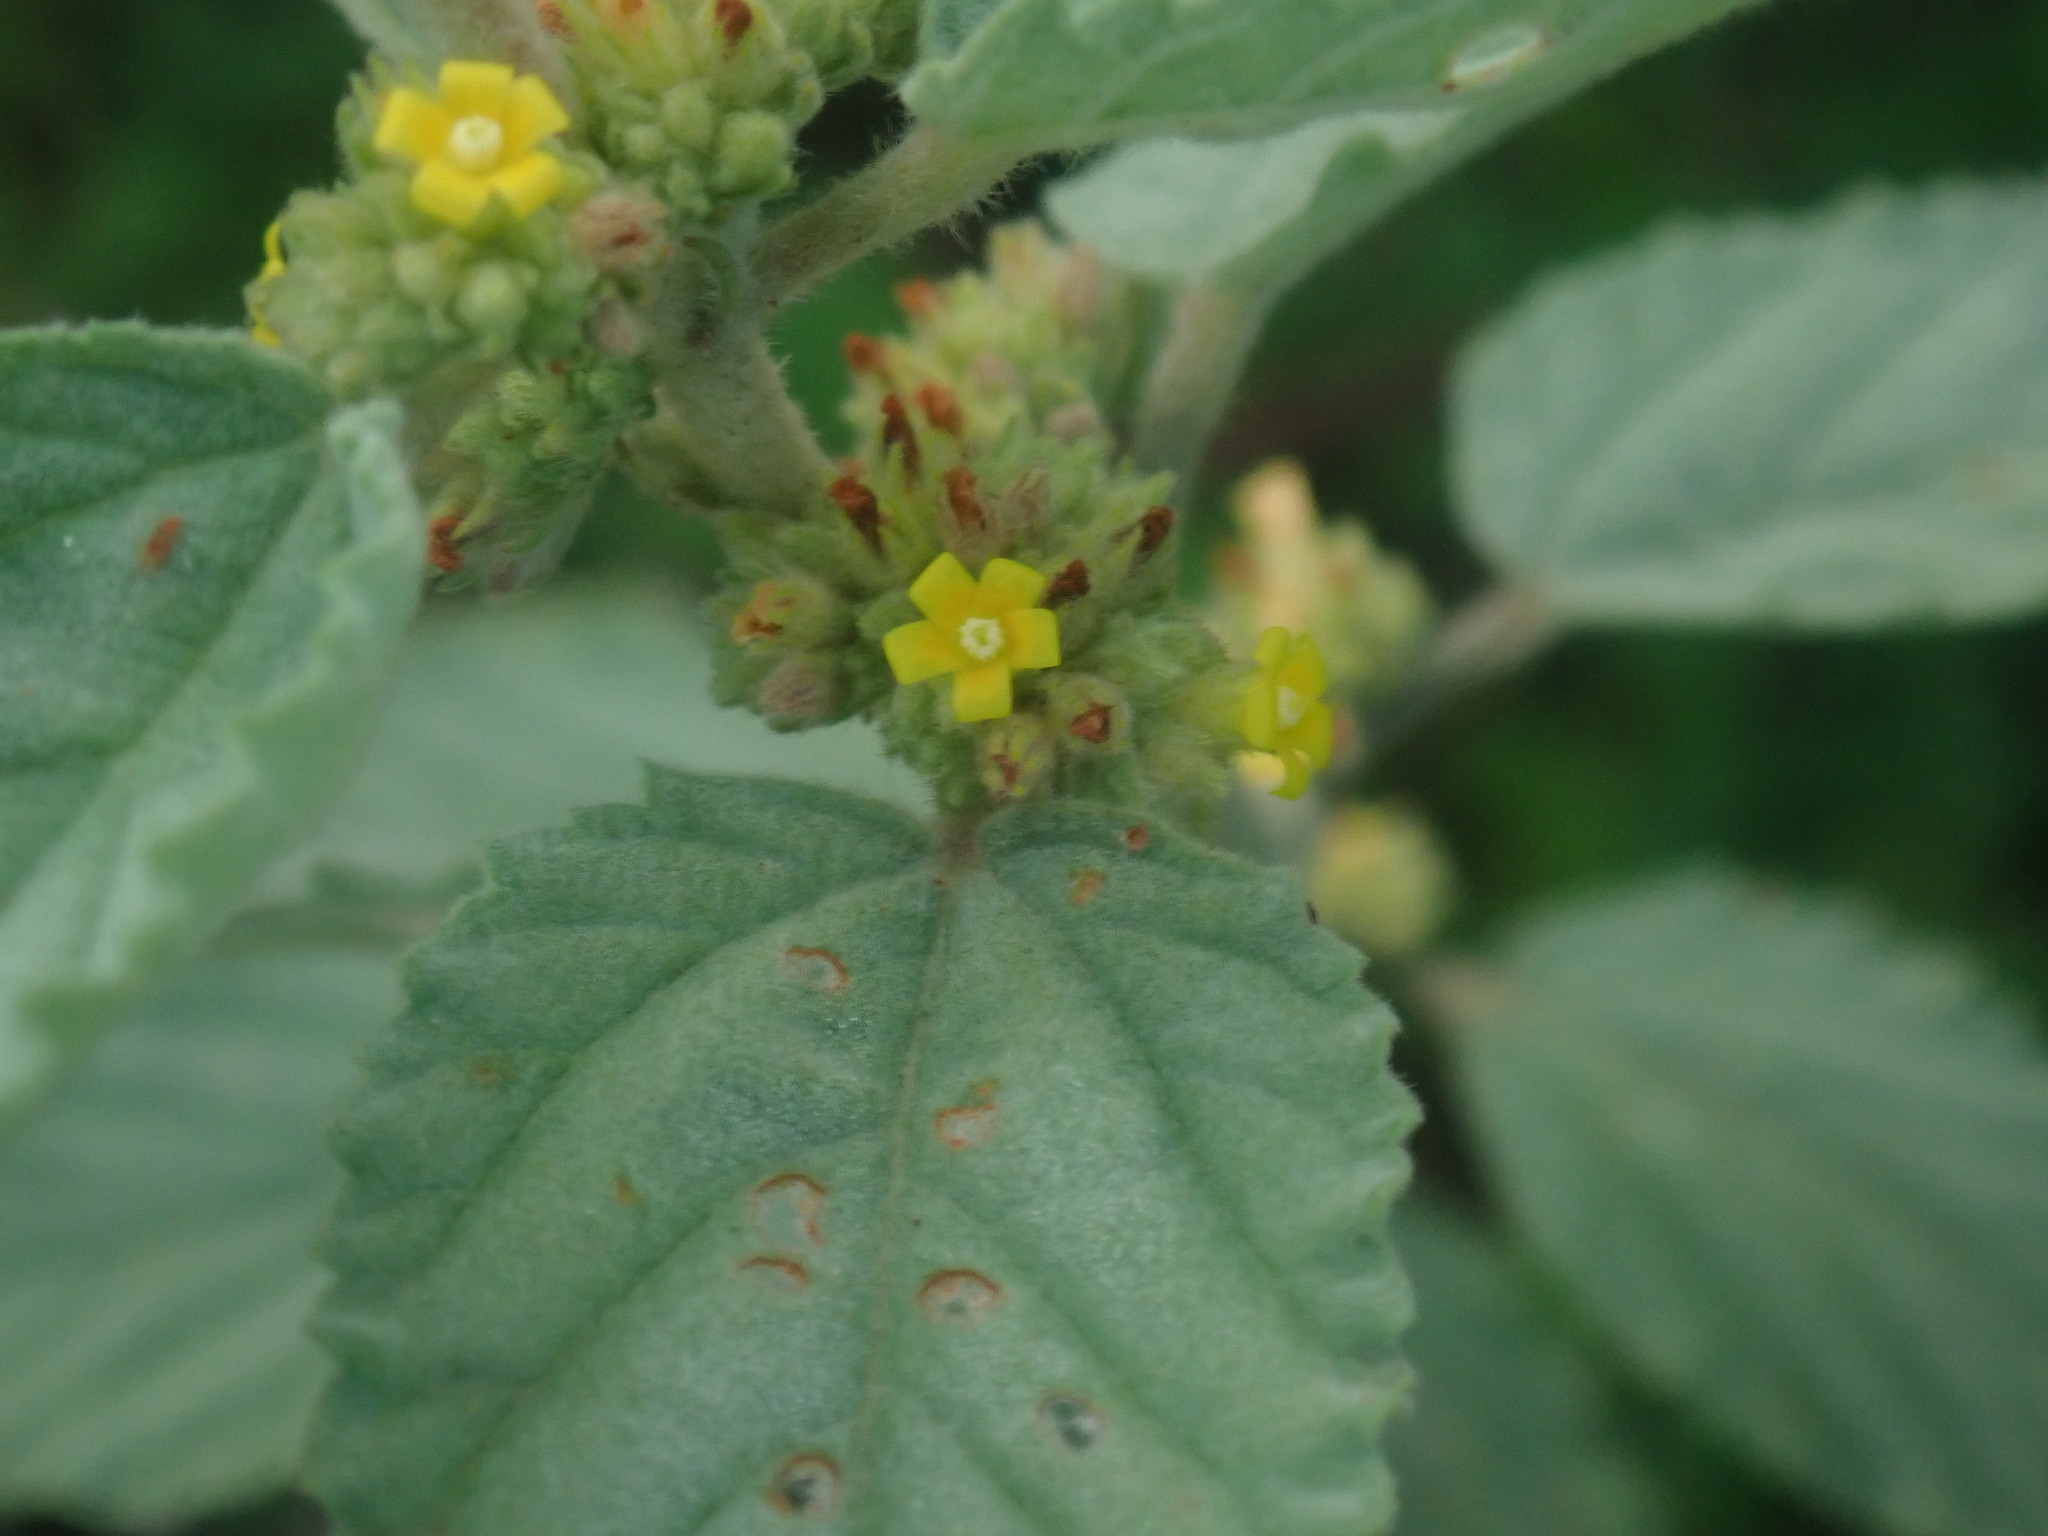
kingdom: Plantae
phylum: Tracheophyta
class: Magnoliopsida
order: Malvales
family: Malvaceae
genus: Waltheria
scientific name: Waltheria indica
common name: Leather-coat
